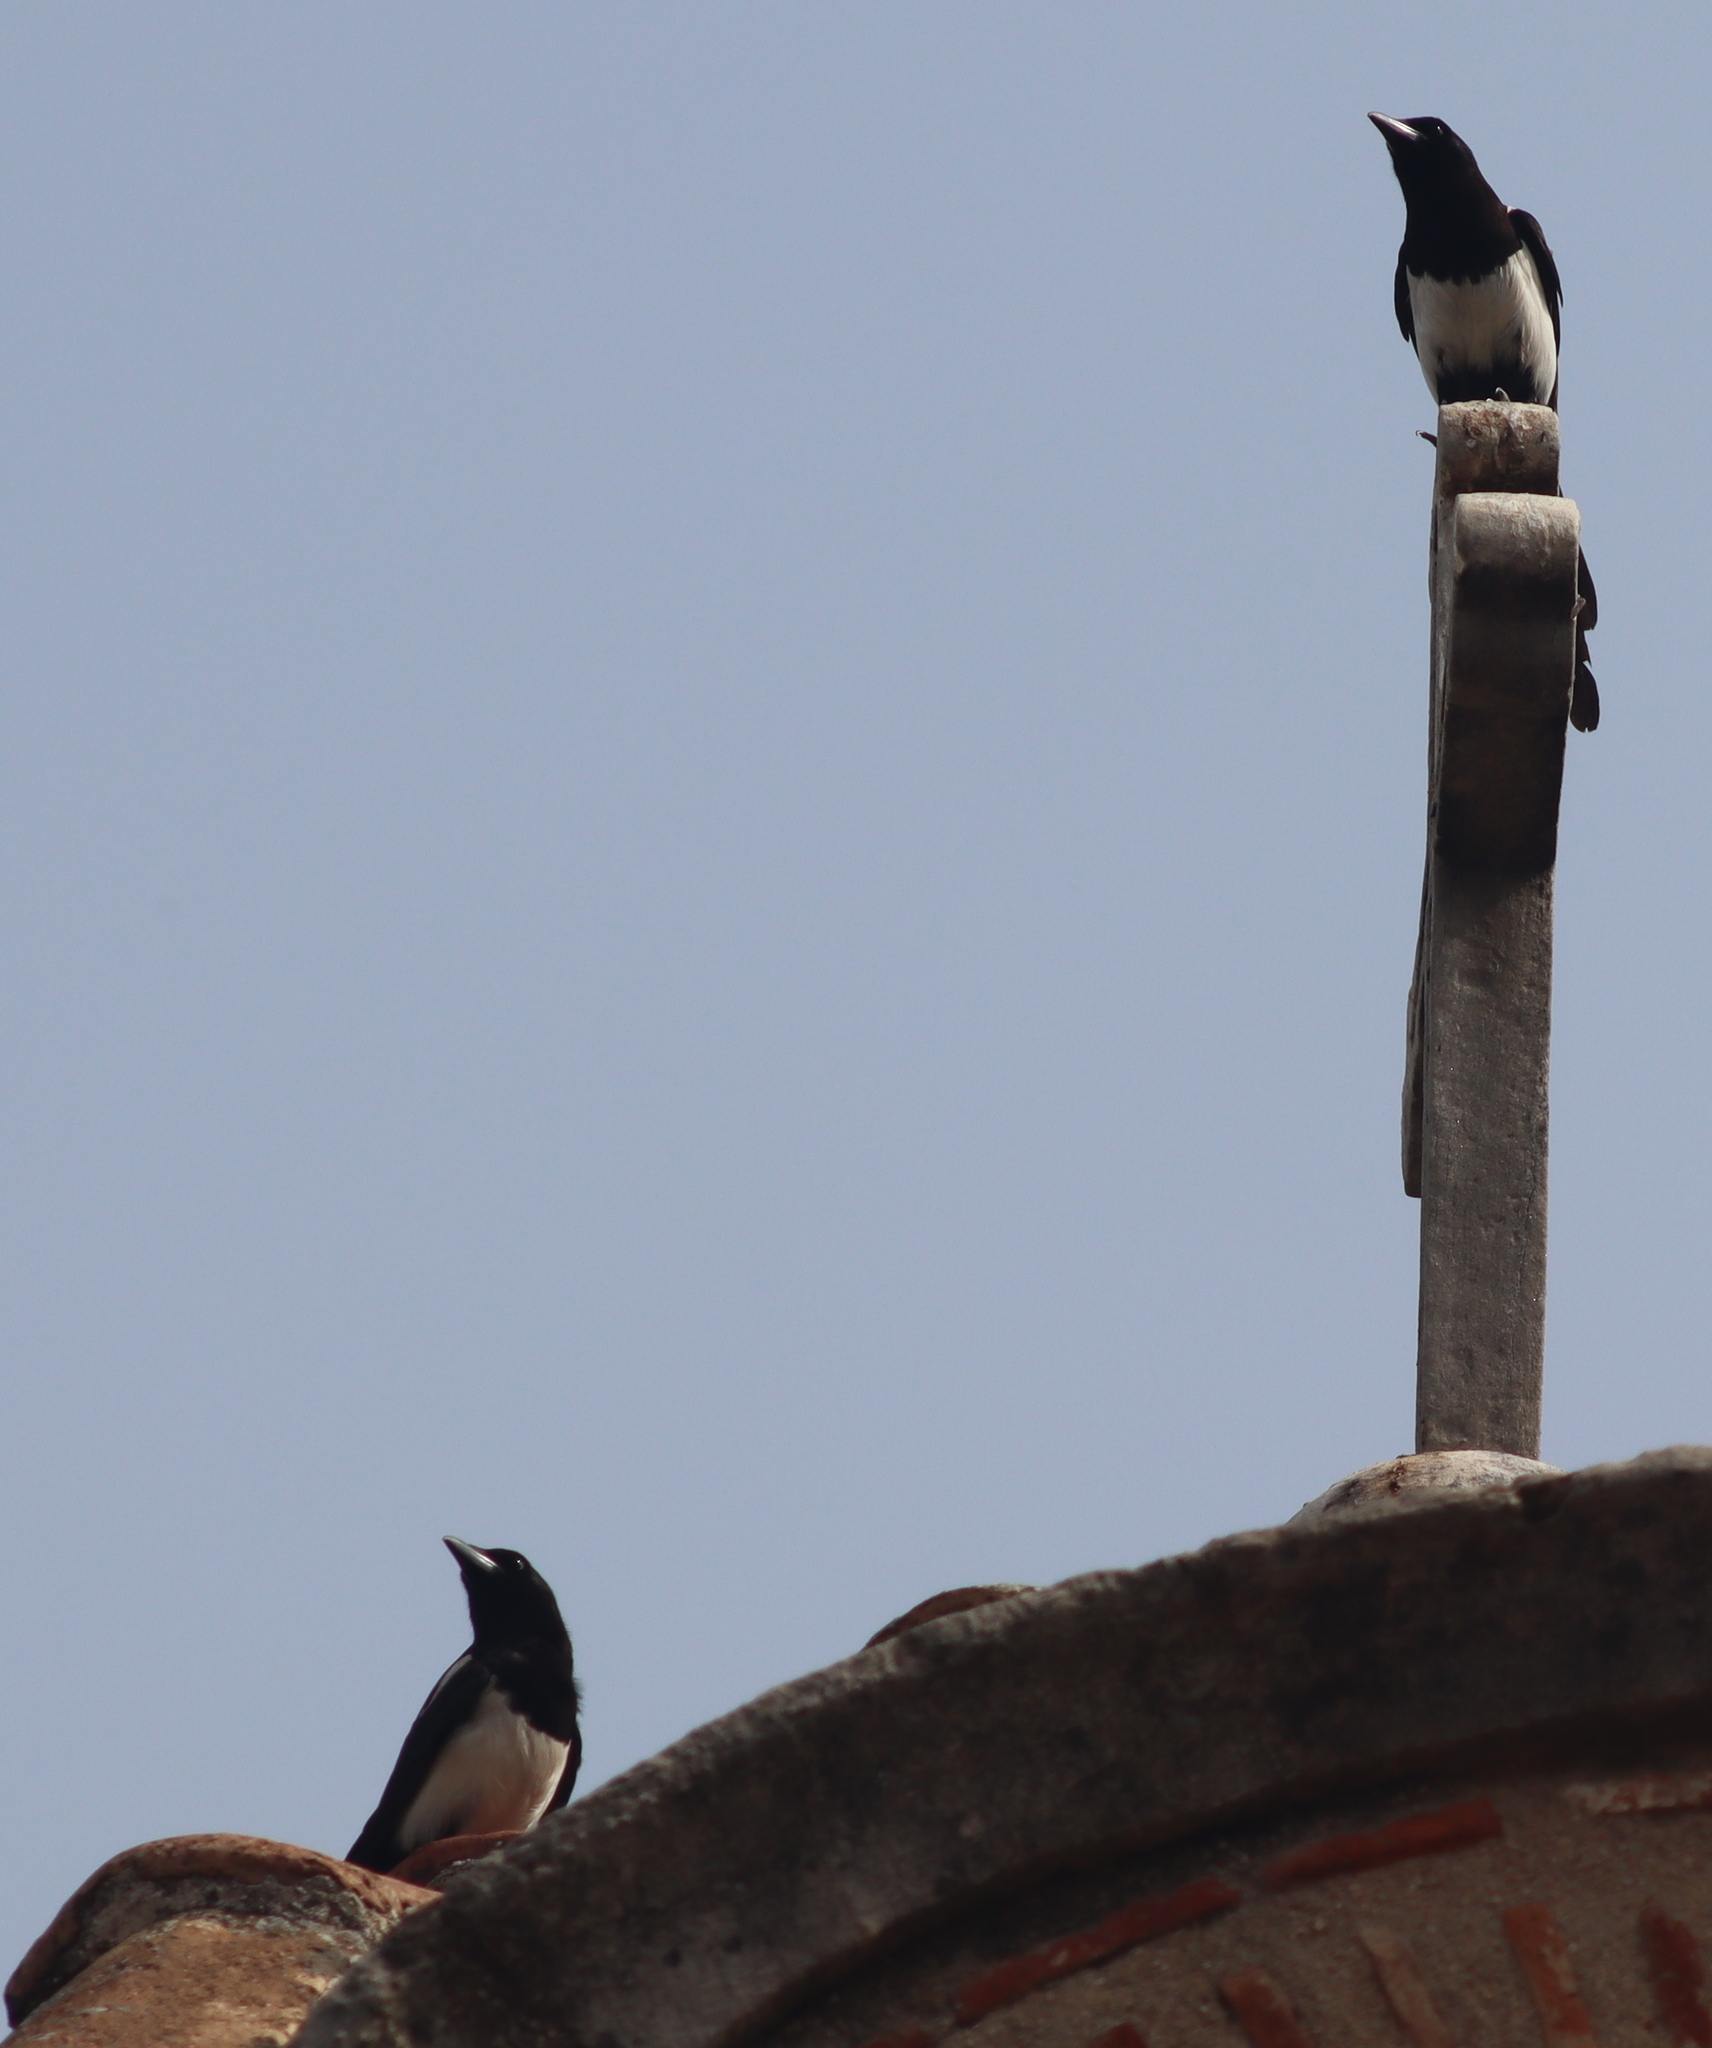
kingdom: Animalia
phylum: Chordata
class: Aves
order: Passeriformes
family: Corvidae
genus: Pica
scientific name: Pica pica
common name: Eurasian magpie
